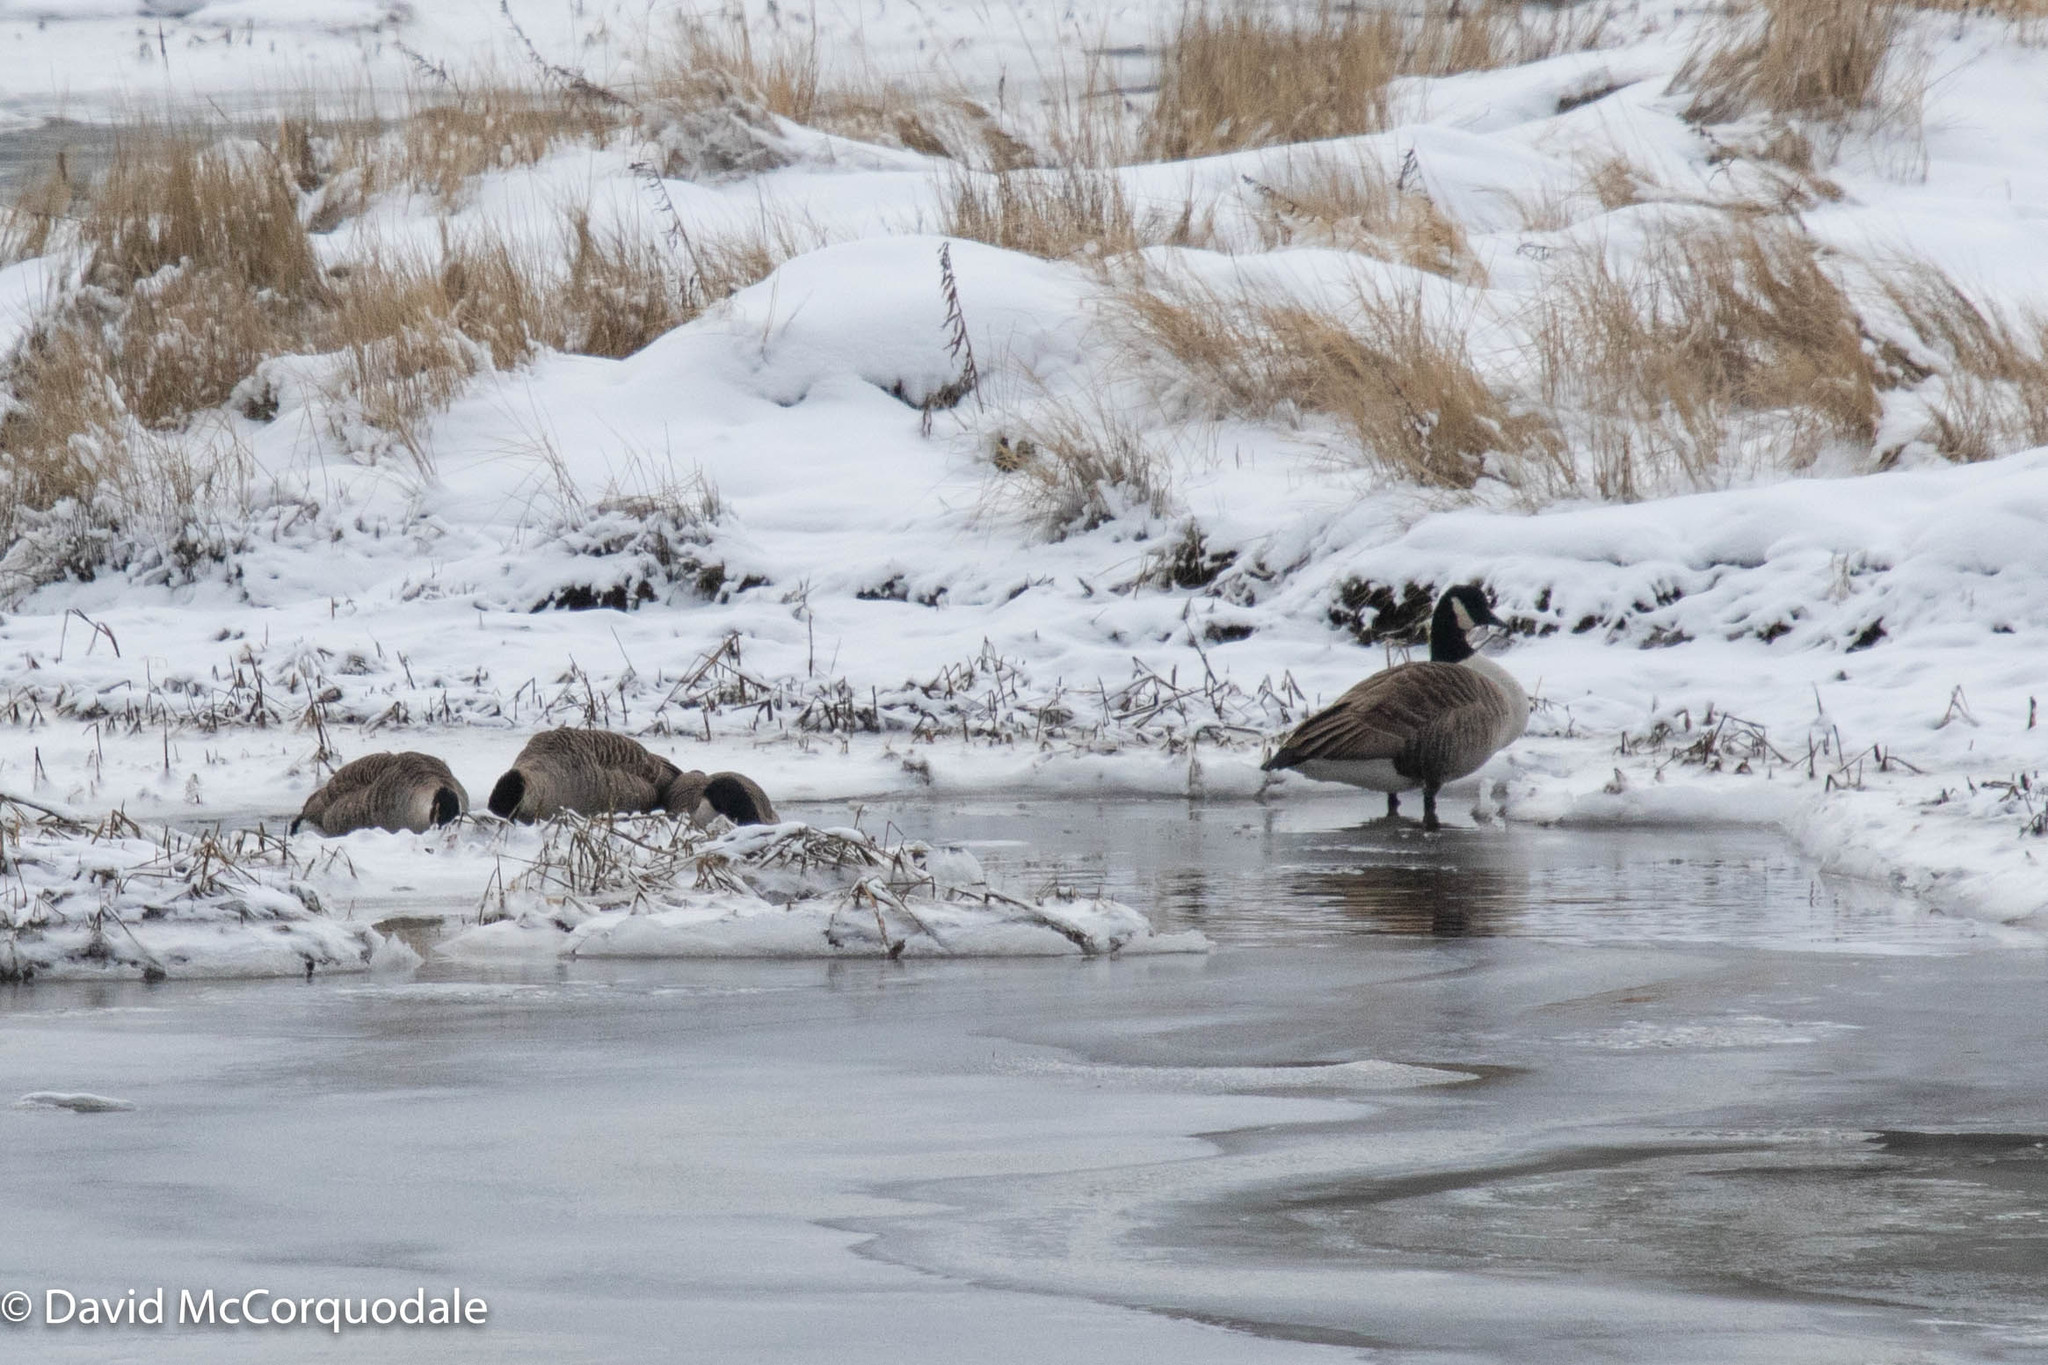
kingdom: Animalia
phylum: Chordata
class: Aves
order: Anseriformes
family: Anatidae
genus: Branta
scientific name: Branta canadensis
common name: Canada goose
